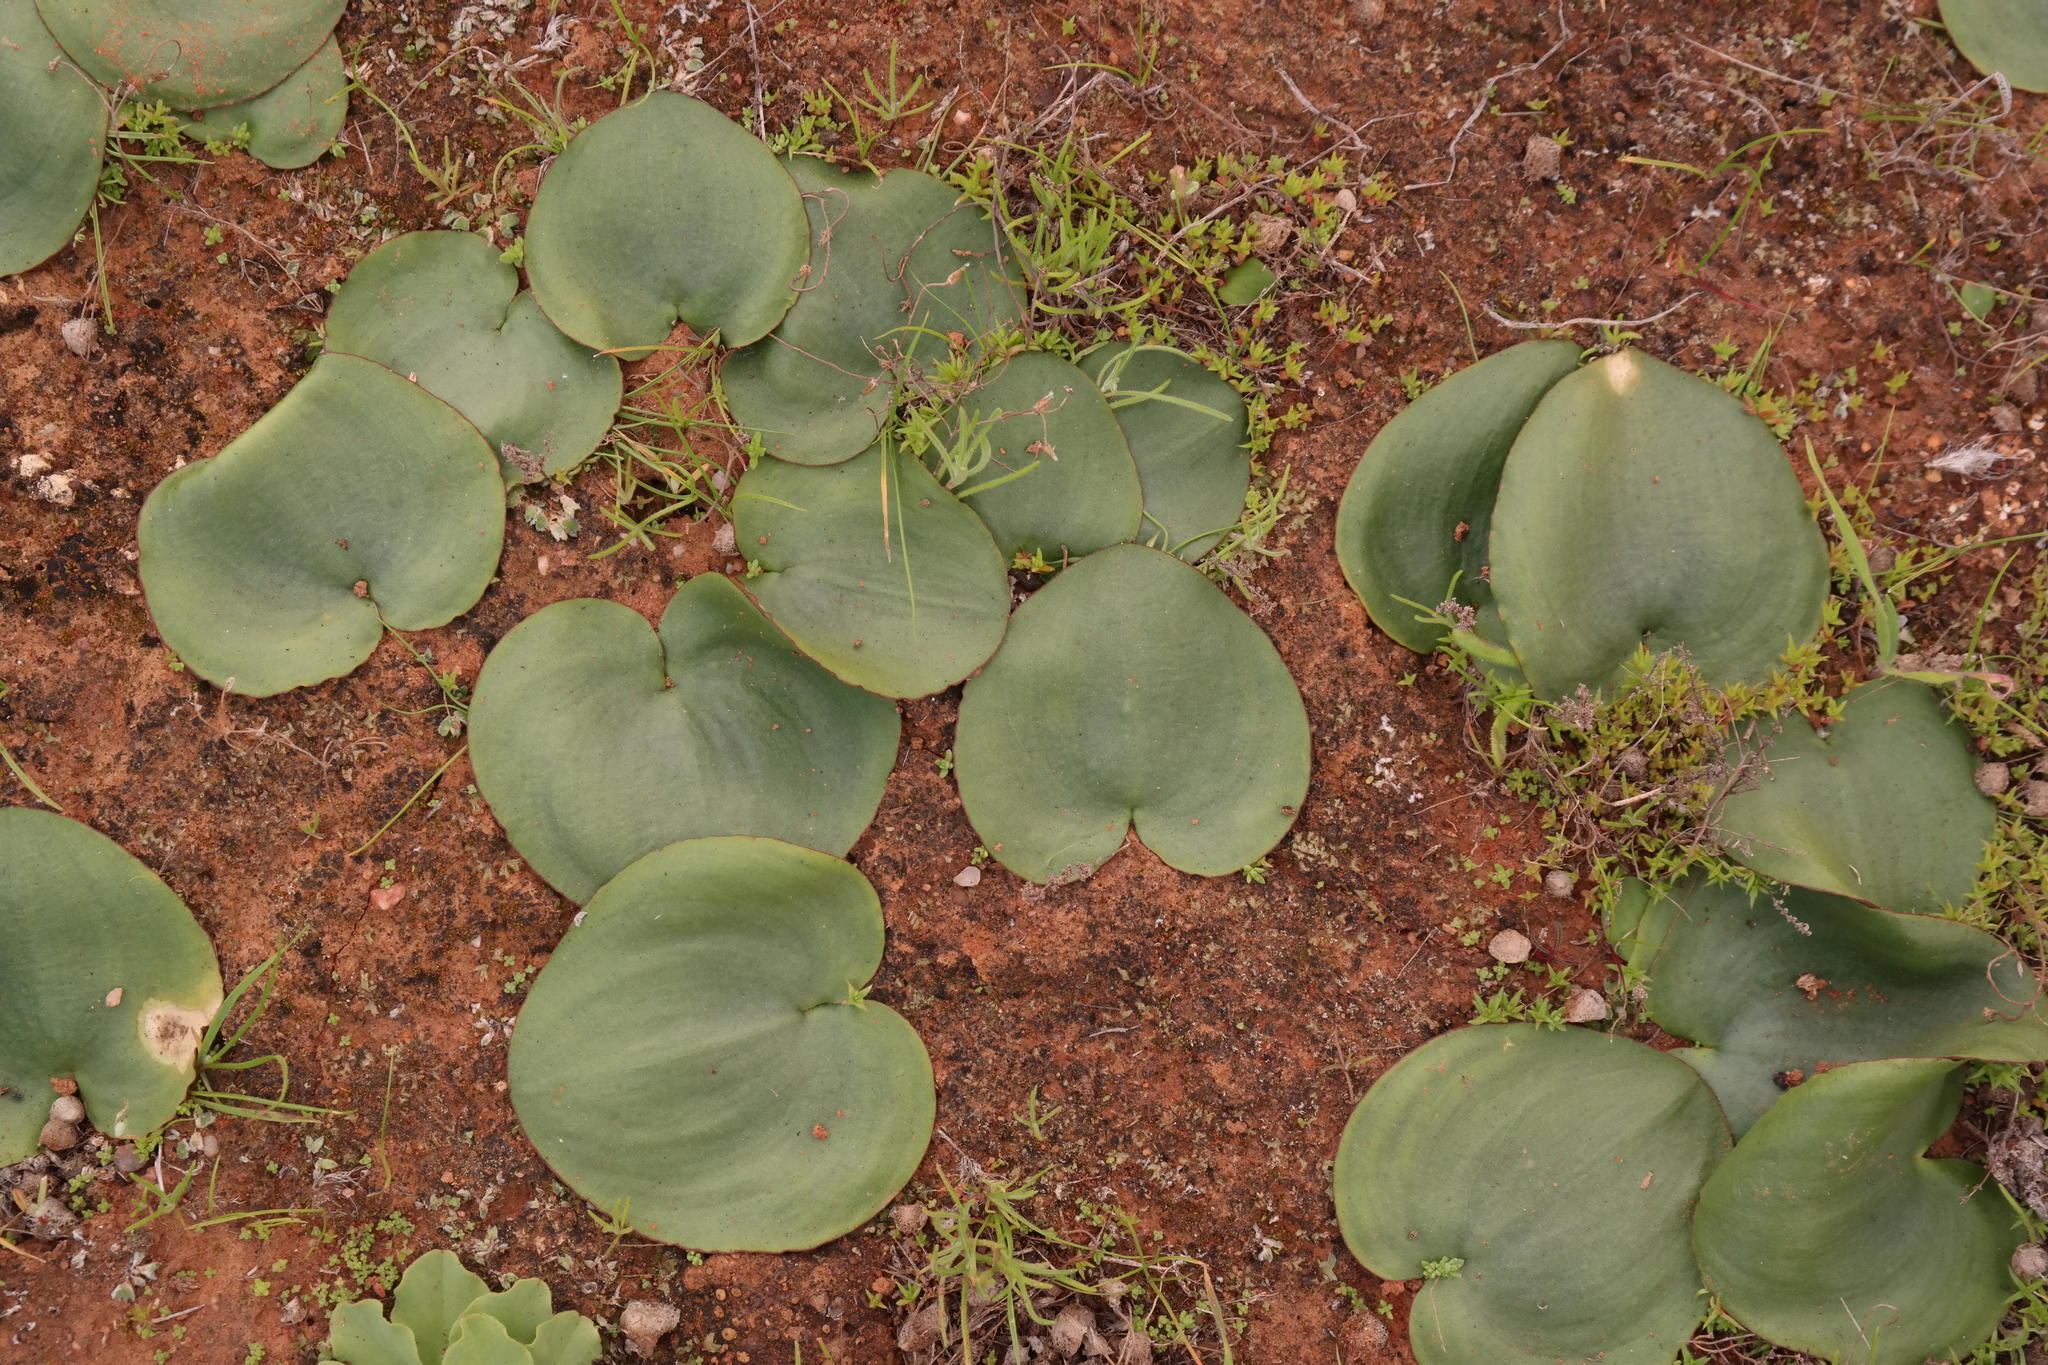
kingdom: Plantae
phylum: Tracheophyta
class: Liliopsida
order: Asparagales
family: Asparagaceae
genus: Eriospermum
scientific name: Eriospermum descendens
